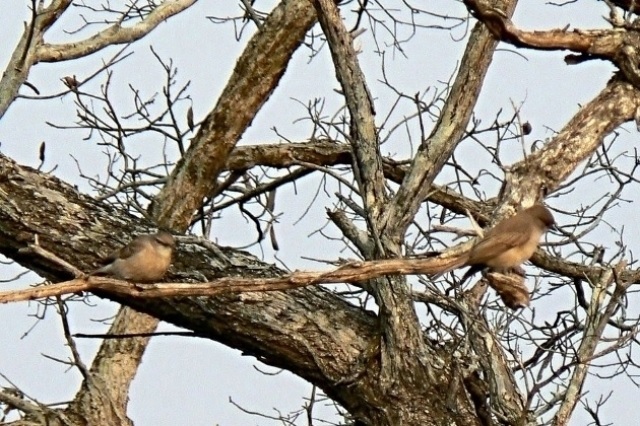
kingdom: Animalia
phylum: Chordata
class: Aves
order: Passeriformes
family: Muscicapidae
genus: Muscicapa
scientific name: Muscicapa adusta
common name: African dusky flycatcher
